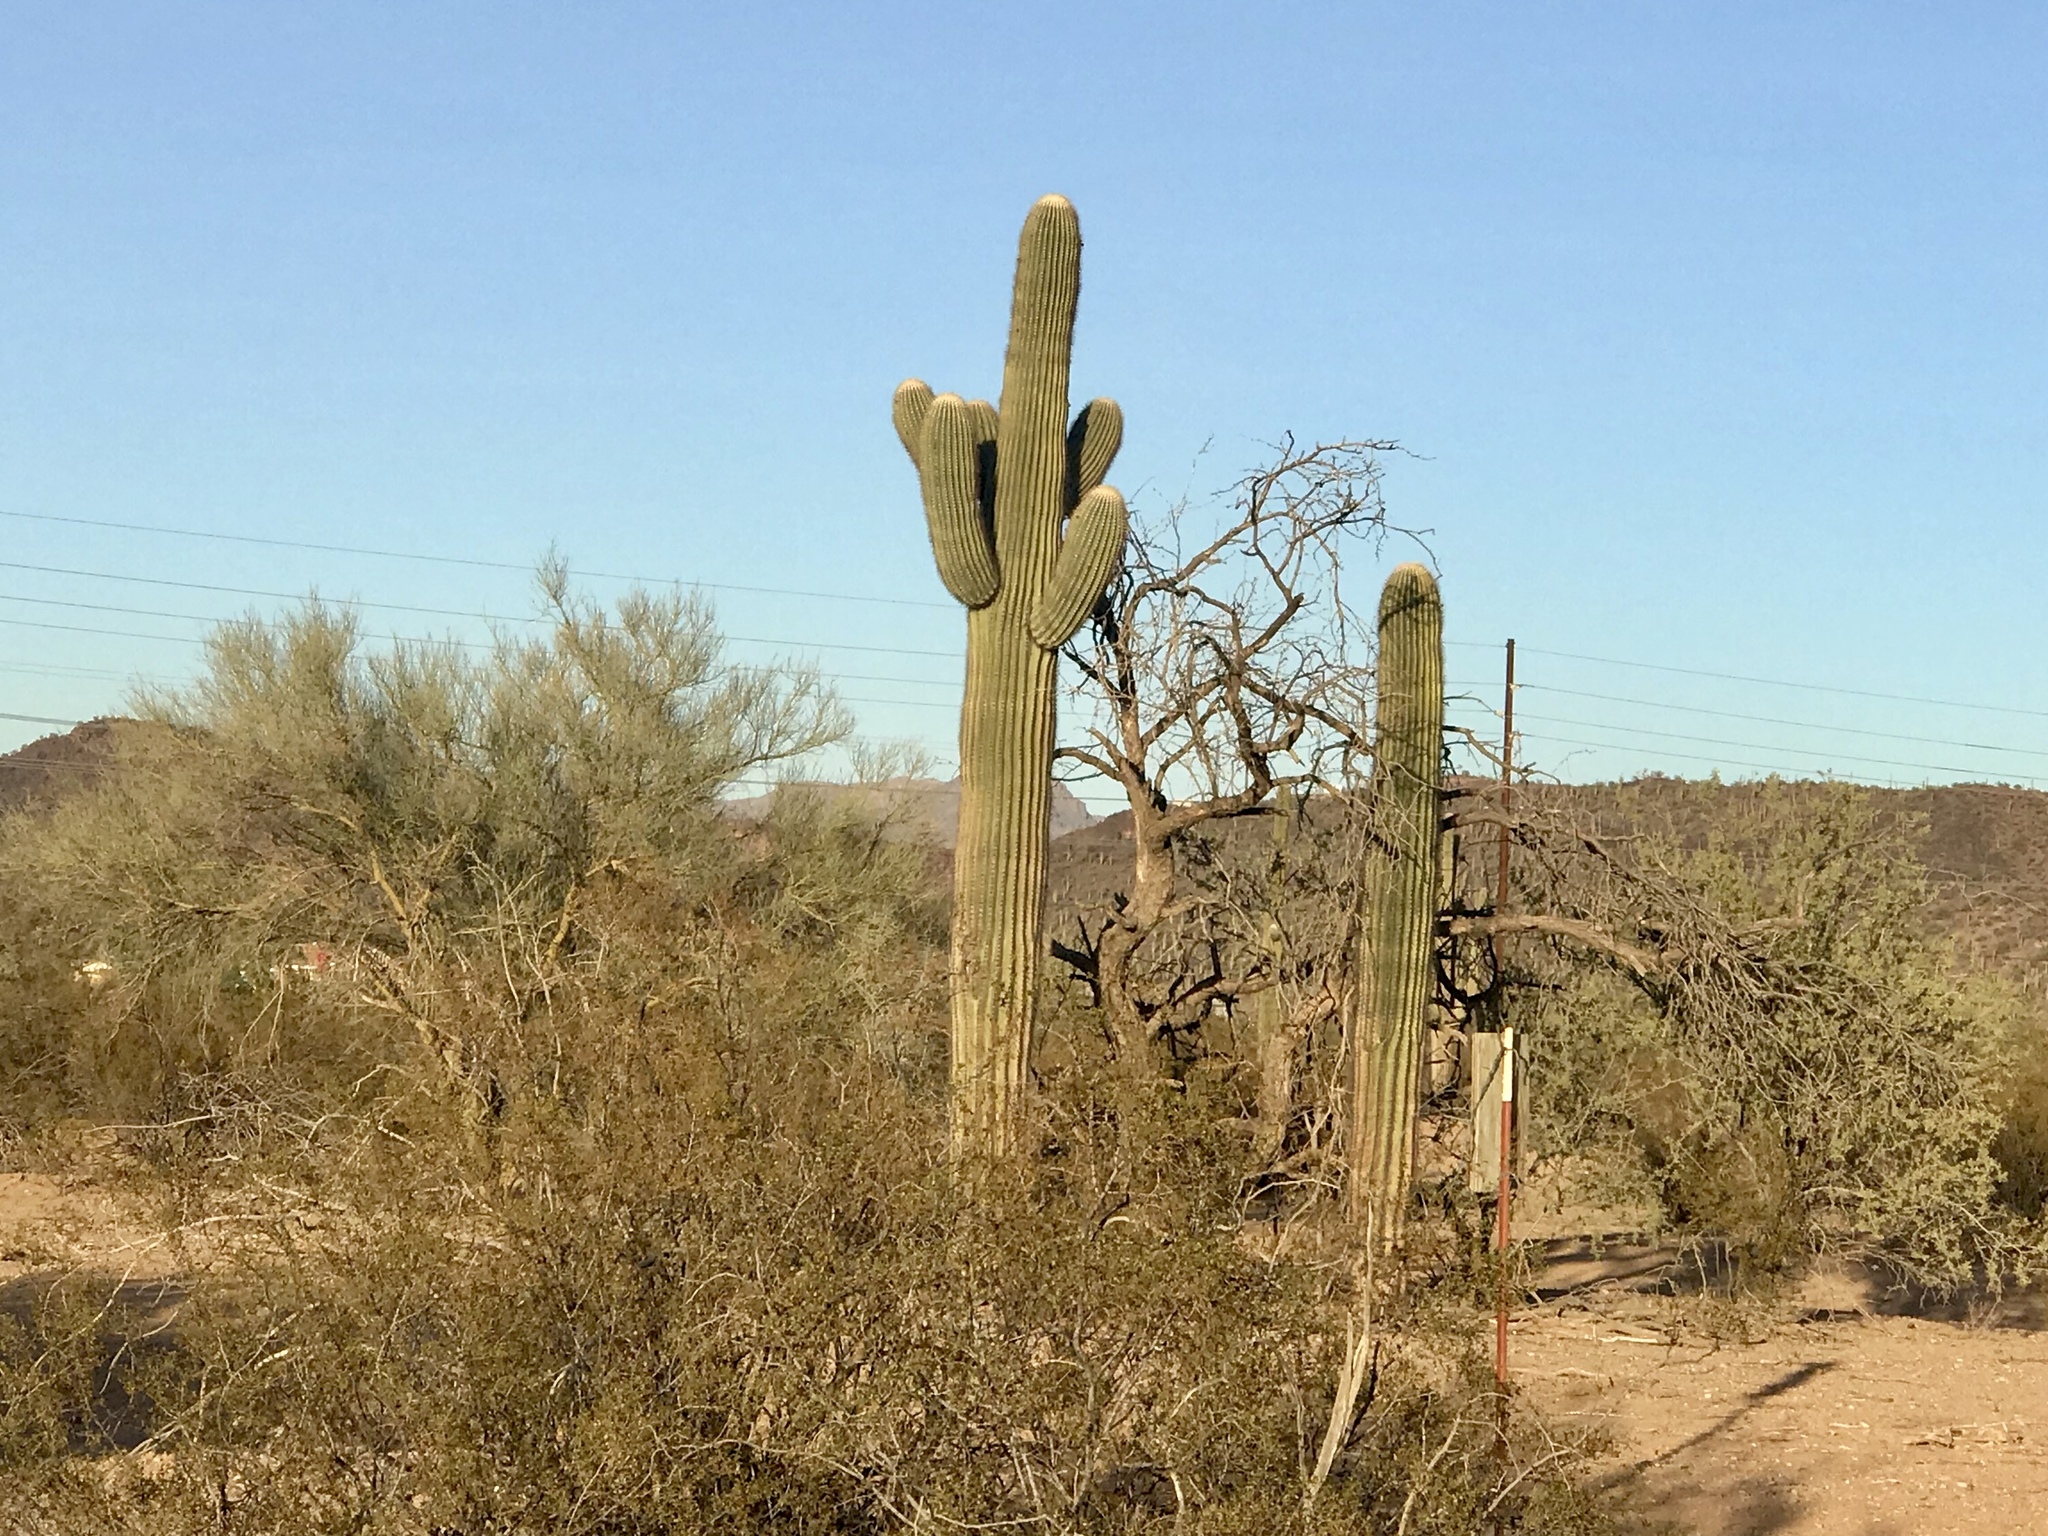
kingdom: Plantae
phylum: Tracheophyta
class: Magnoliopsida
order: Caryophyllales
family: Cactaceae
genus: Carnegiea
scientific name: Carnegiea gigantea
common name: Saguaro
